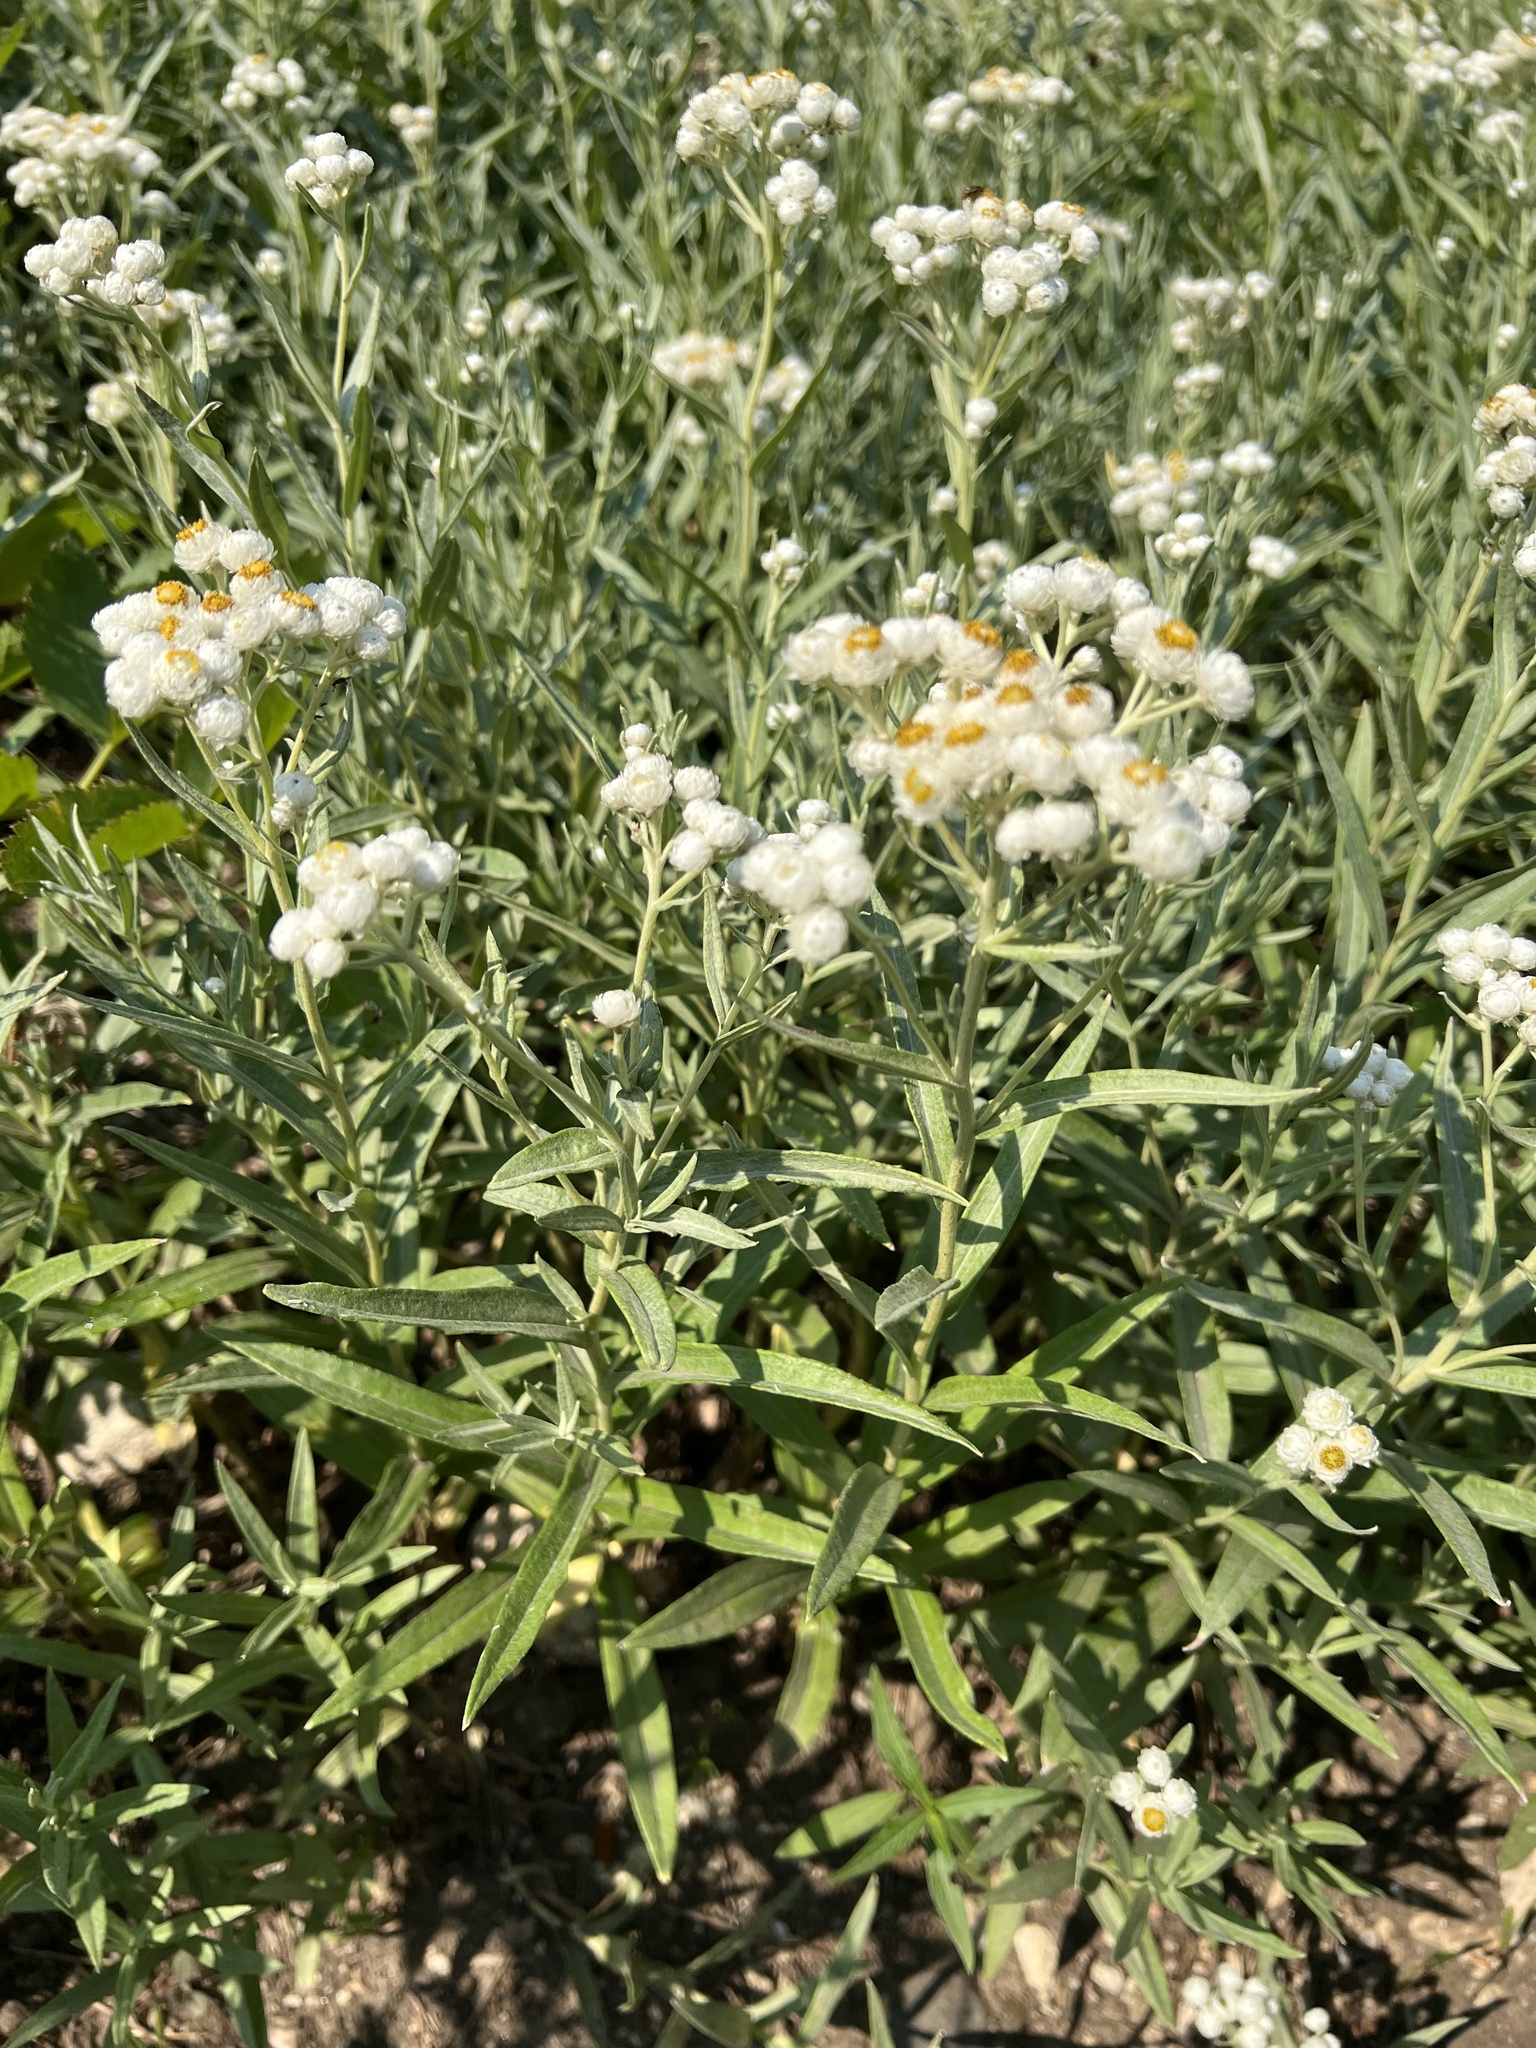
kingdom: Plantae
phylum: Tracheophyta
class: Magnoliopsida
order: Asterales
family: Asteraceae
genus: Anaphalis
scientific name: Anaphalis margaritacea
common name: Pearly everlasting
